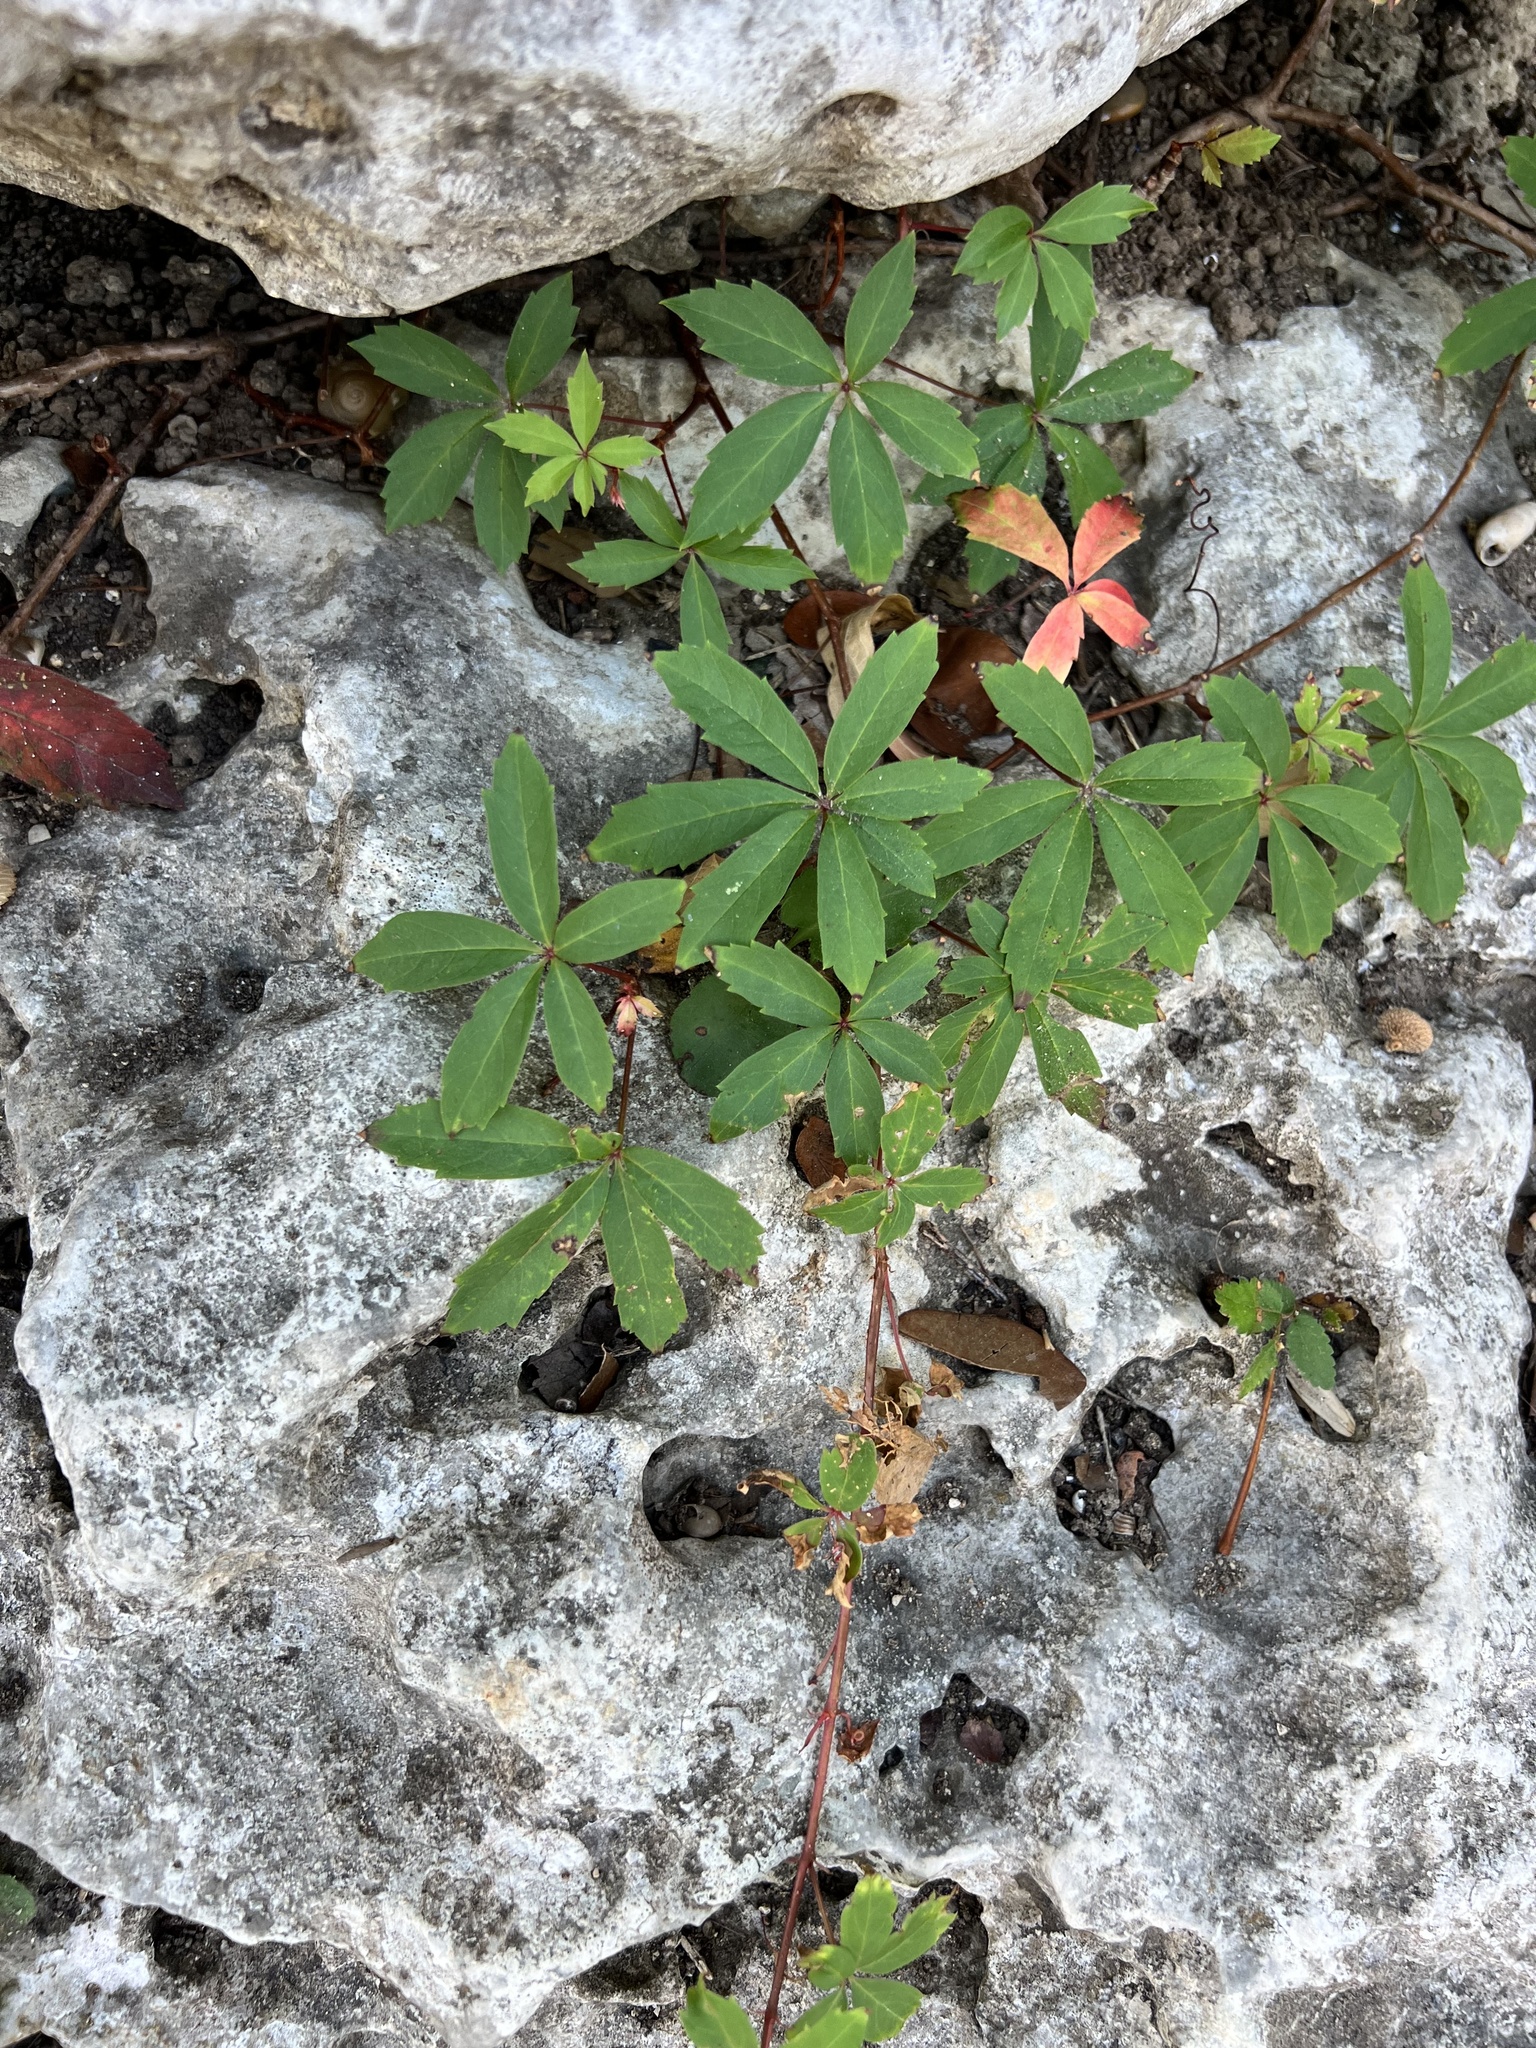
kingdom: Plantae
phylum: Tracheophyta
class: Magnoliopsida
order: Vitales
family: Vitaceae
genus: Parthenocissus
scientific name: Parthenocissus heptaphylla
